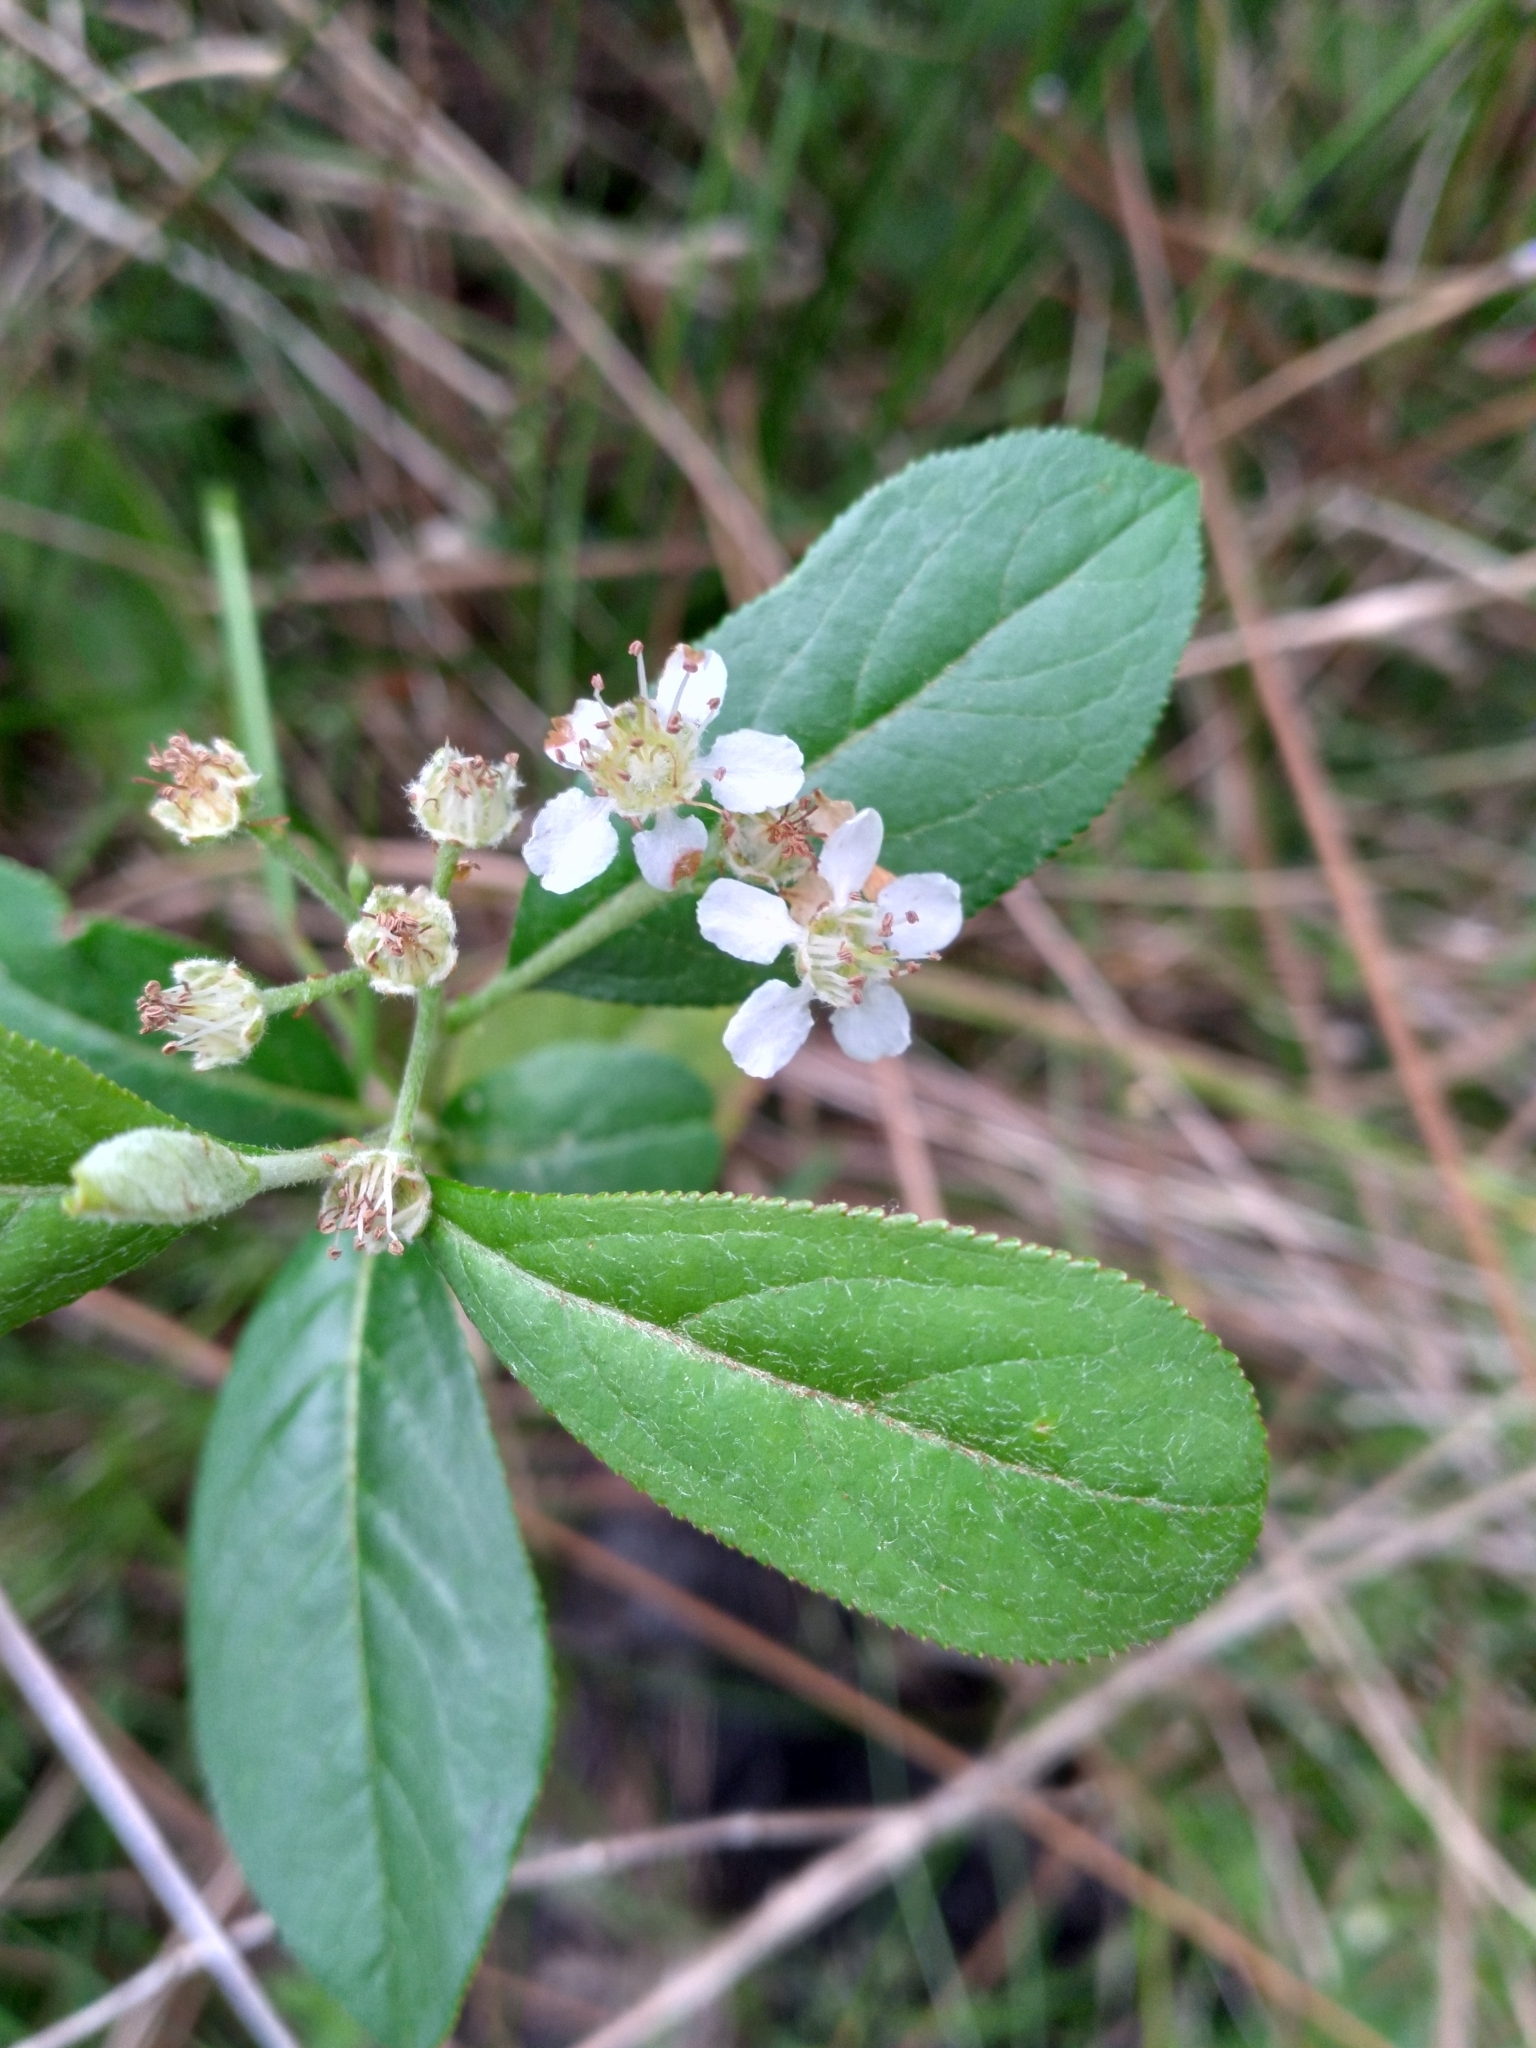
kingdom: Plantae
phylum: Tracheophyta
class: Magnoliopsida
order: Rosales
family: Rosaceae
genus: Aronia
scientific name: Aronia arbutifolia
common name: Red chokeberry
